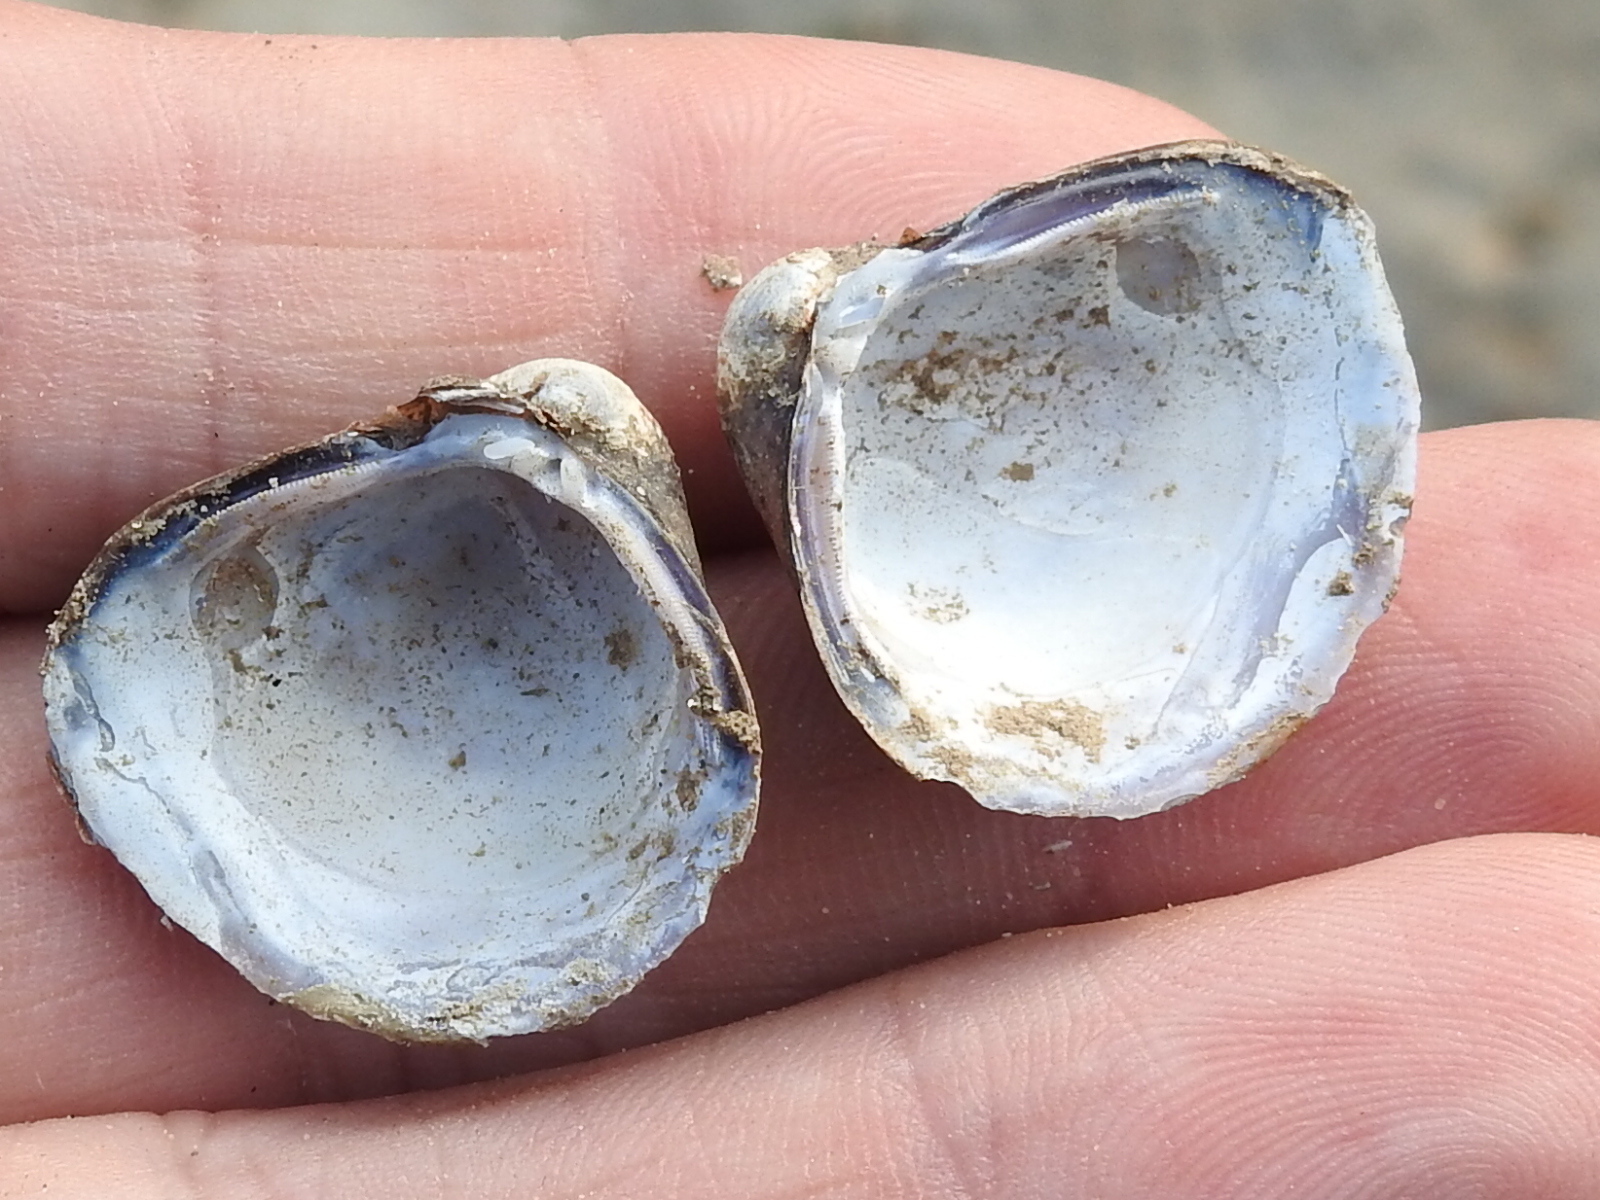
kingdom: Animalia
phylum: Mollusca
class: Bivalvia
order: Venerida
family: Cyrenidae
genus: Corbicula
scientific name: Corbicula fluminea
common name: Asian clam
